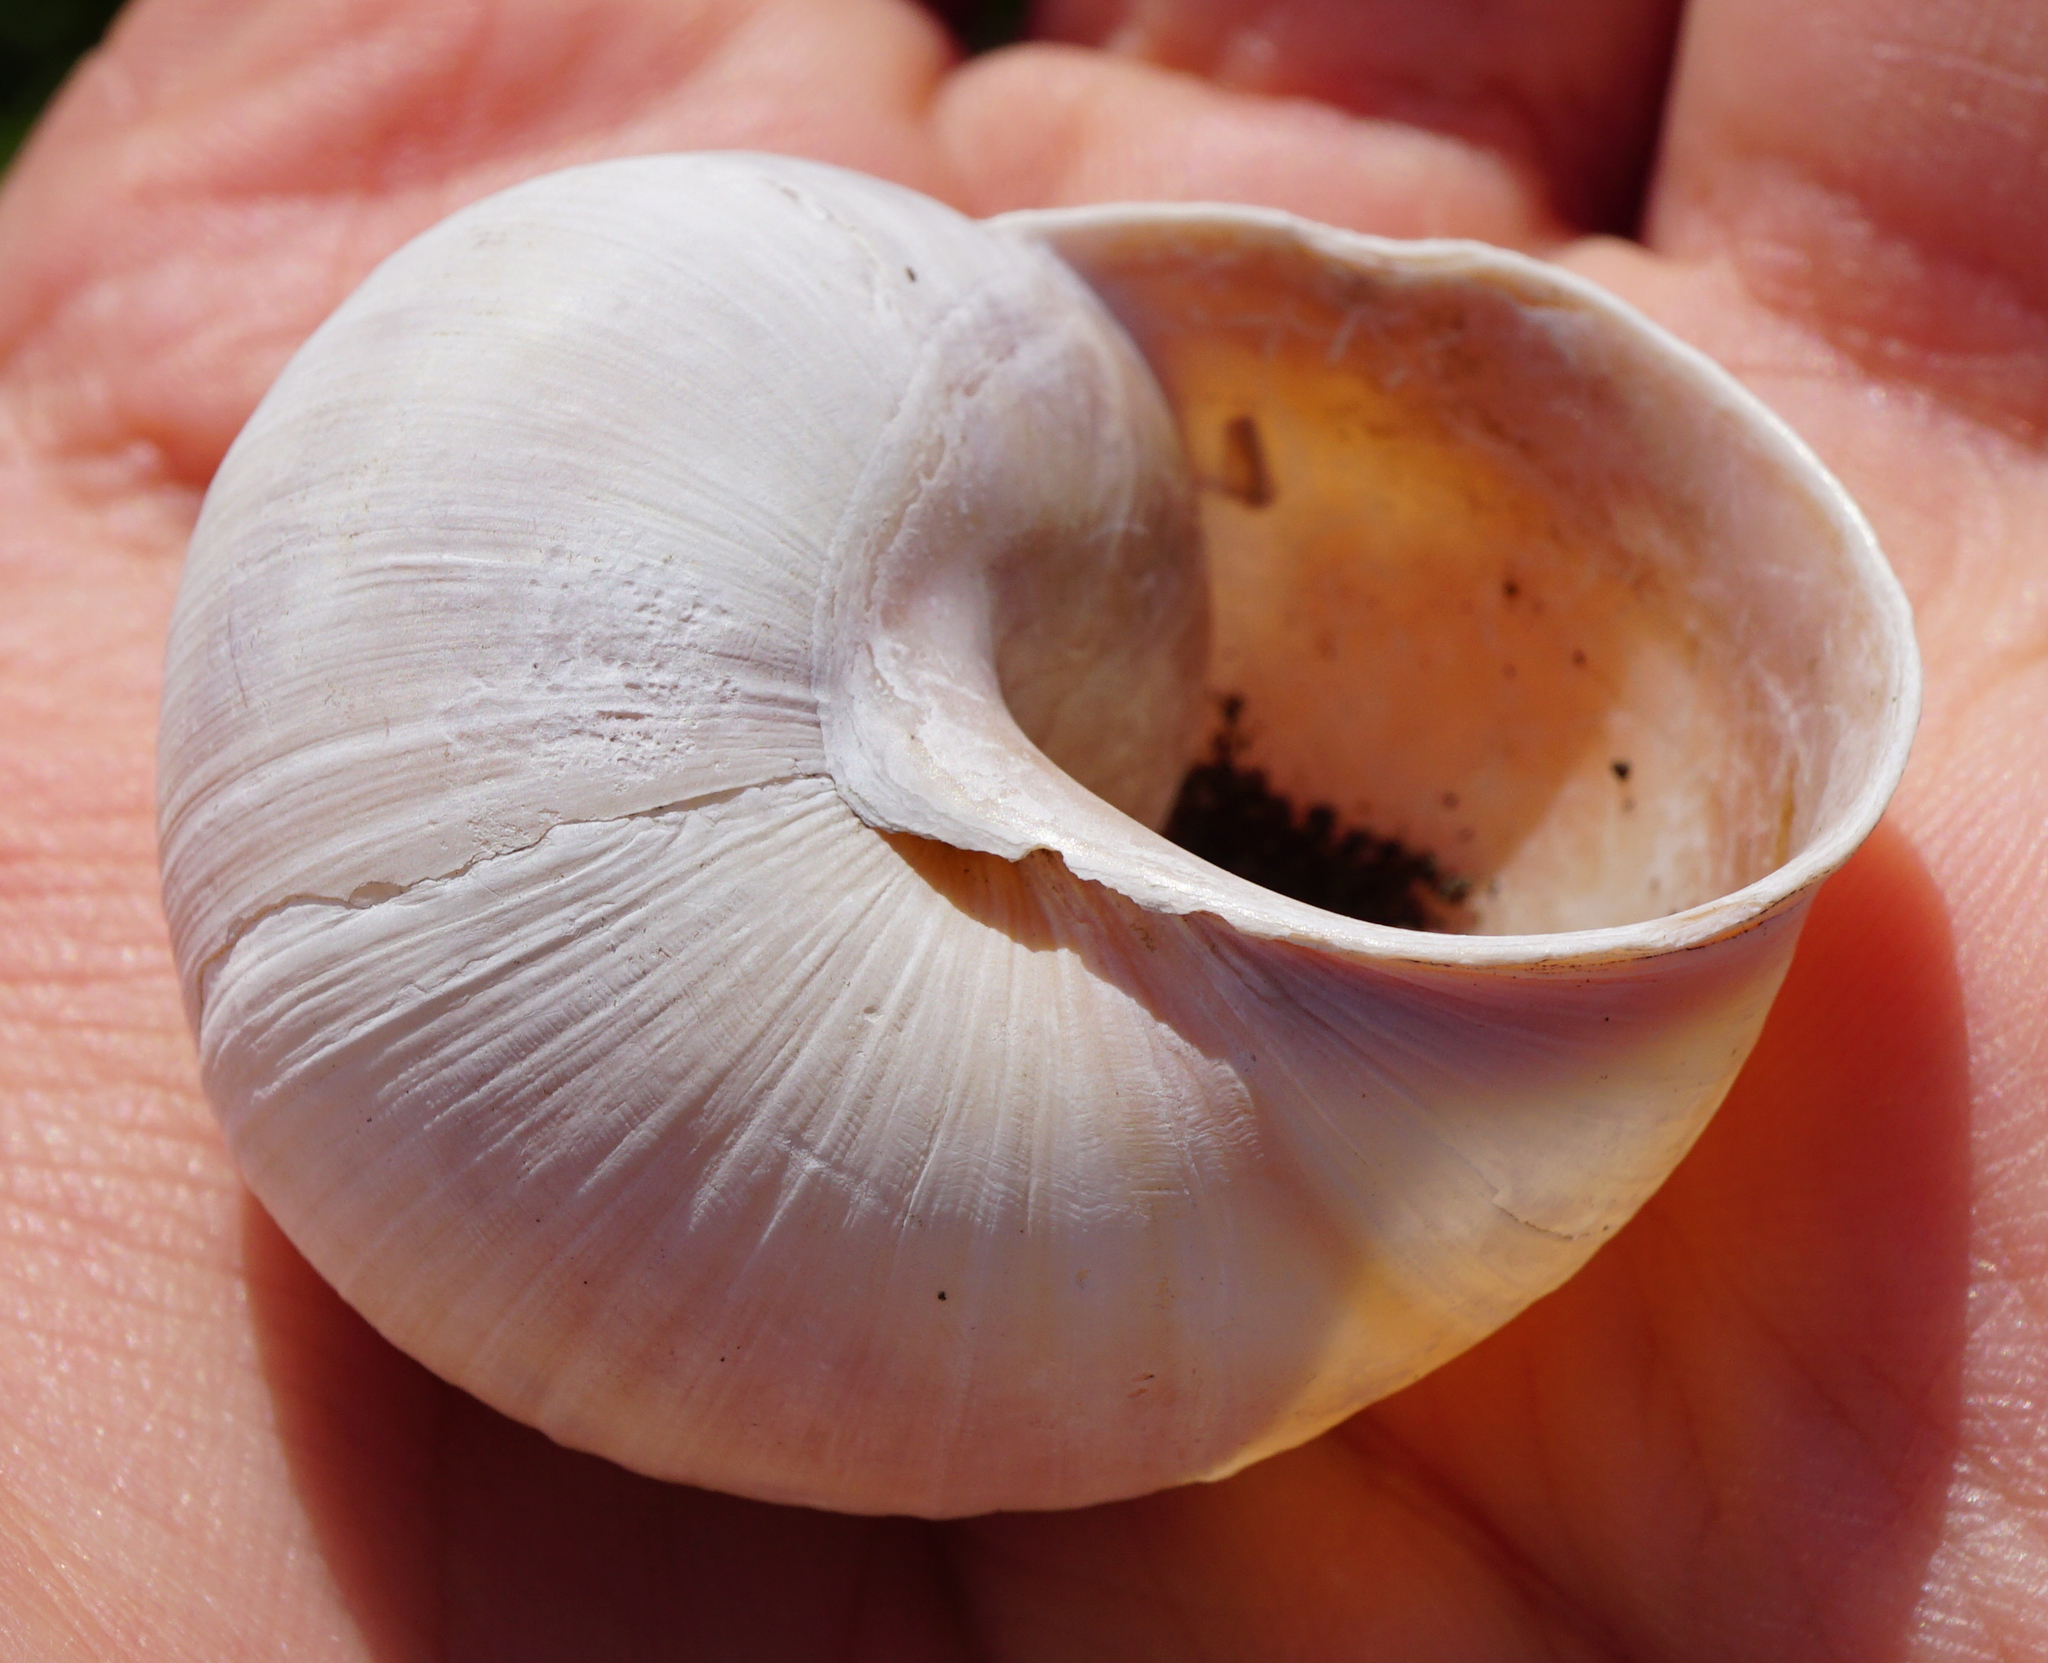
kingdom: Animalia
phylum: Mollusca
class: Gastropoda
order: Stylommatophora
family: Helicidae
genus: Helix
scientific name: Helix pomatia
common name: Roman snail
